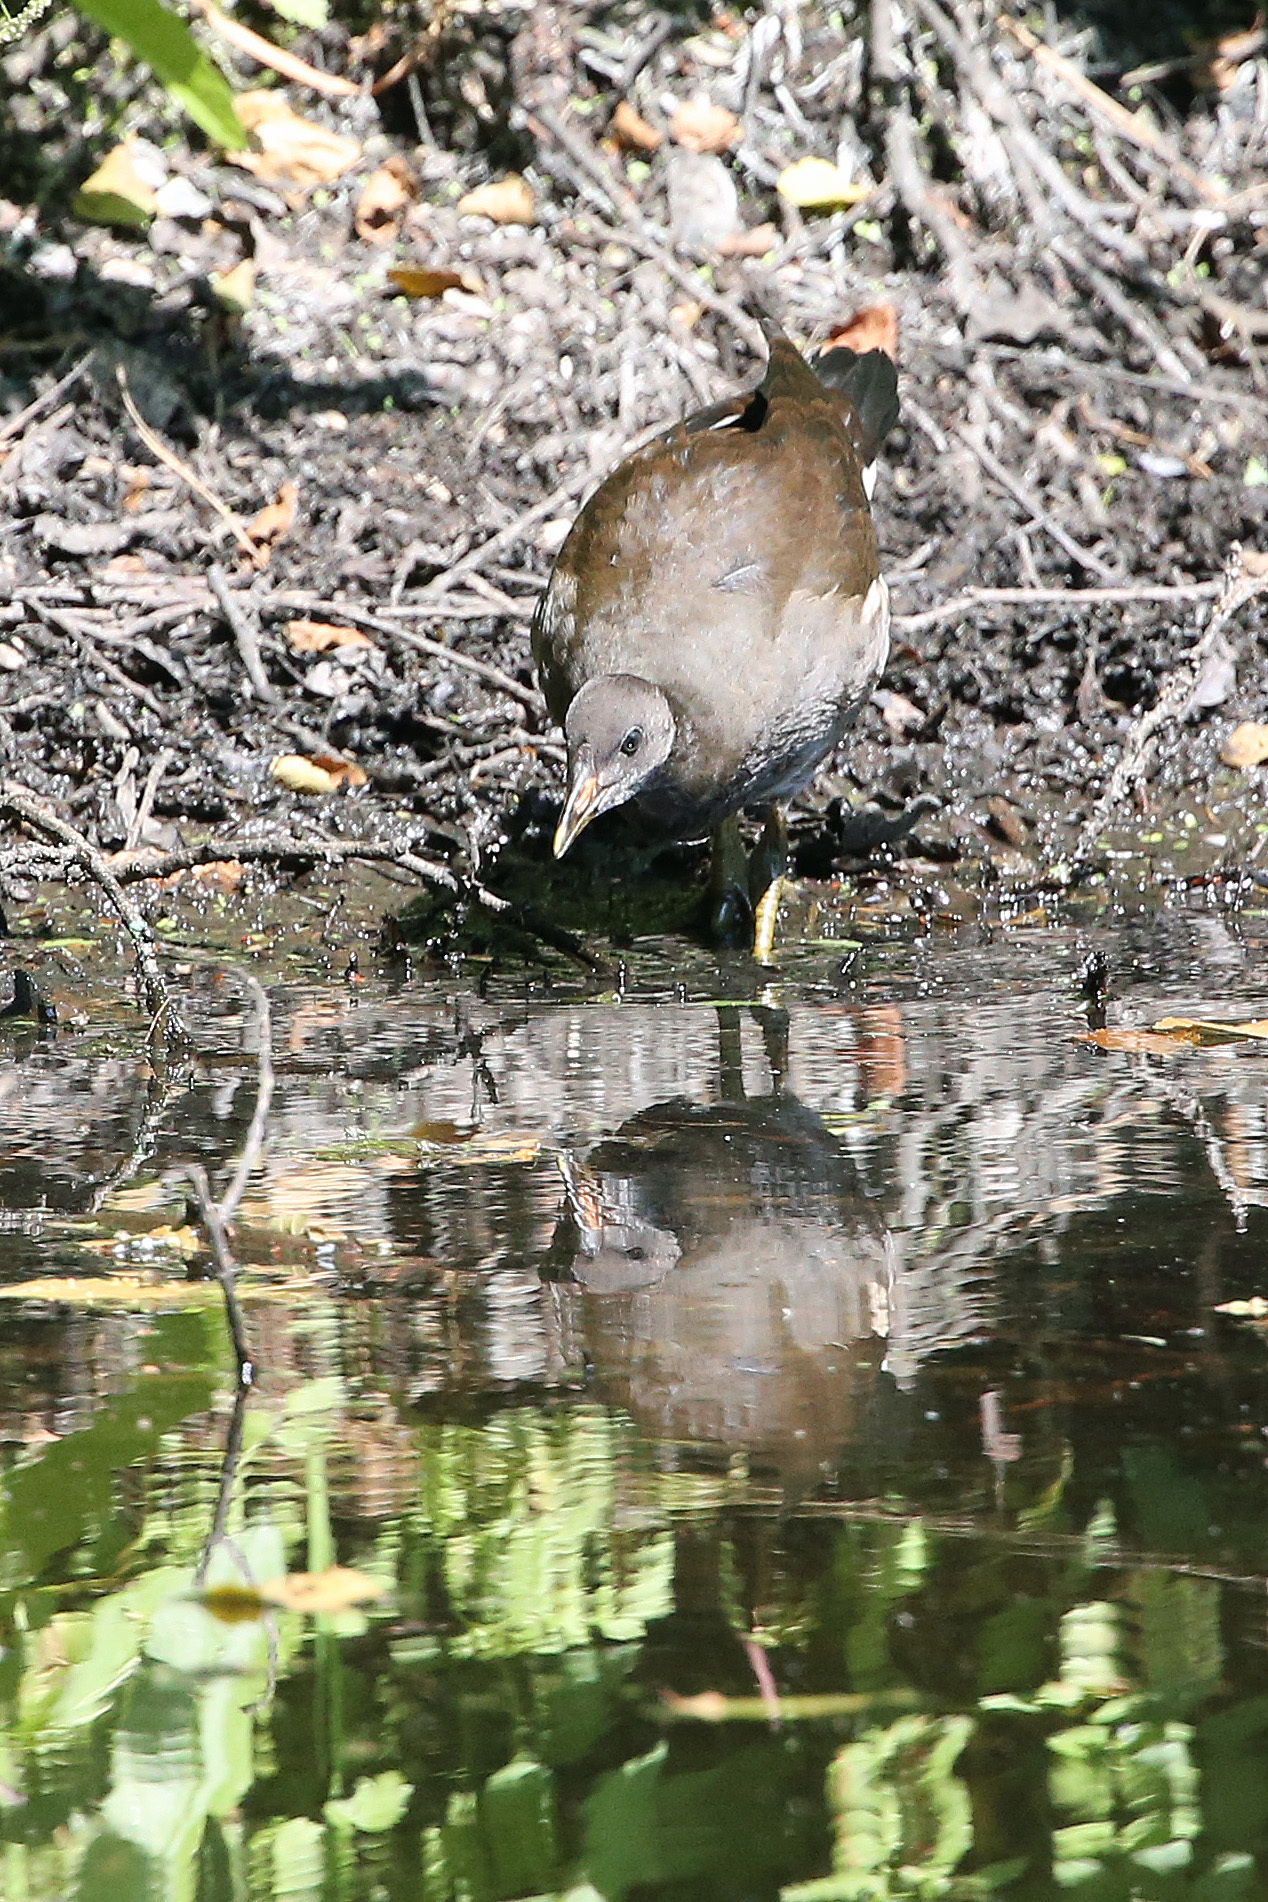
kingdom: Animalia
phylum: Chordata
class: Aves
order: Gruiformes
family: Rallidae
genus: Gallinula
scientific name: Gallinula chloropus
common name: Common moorhen
